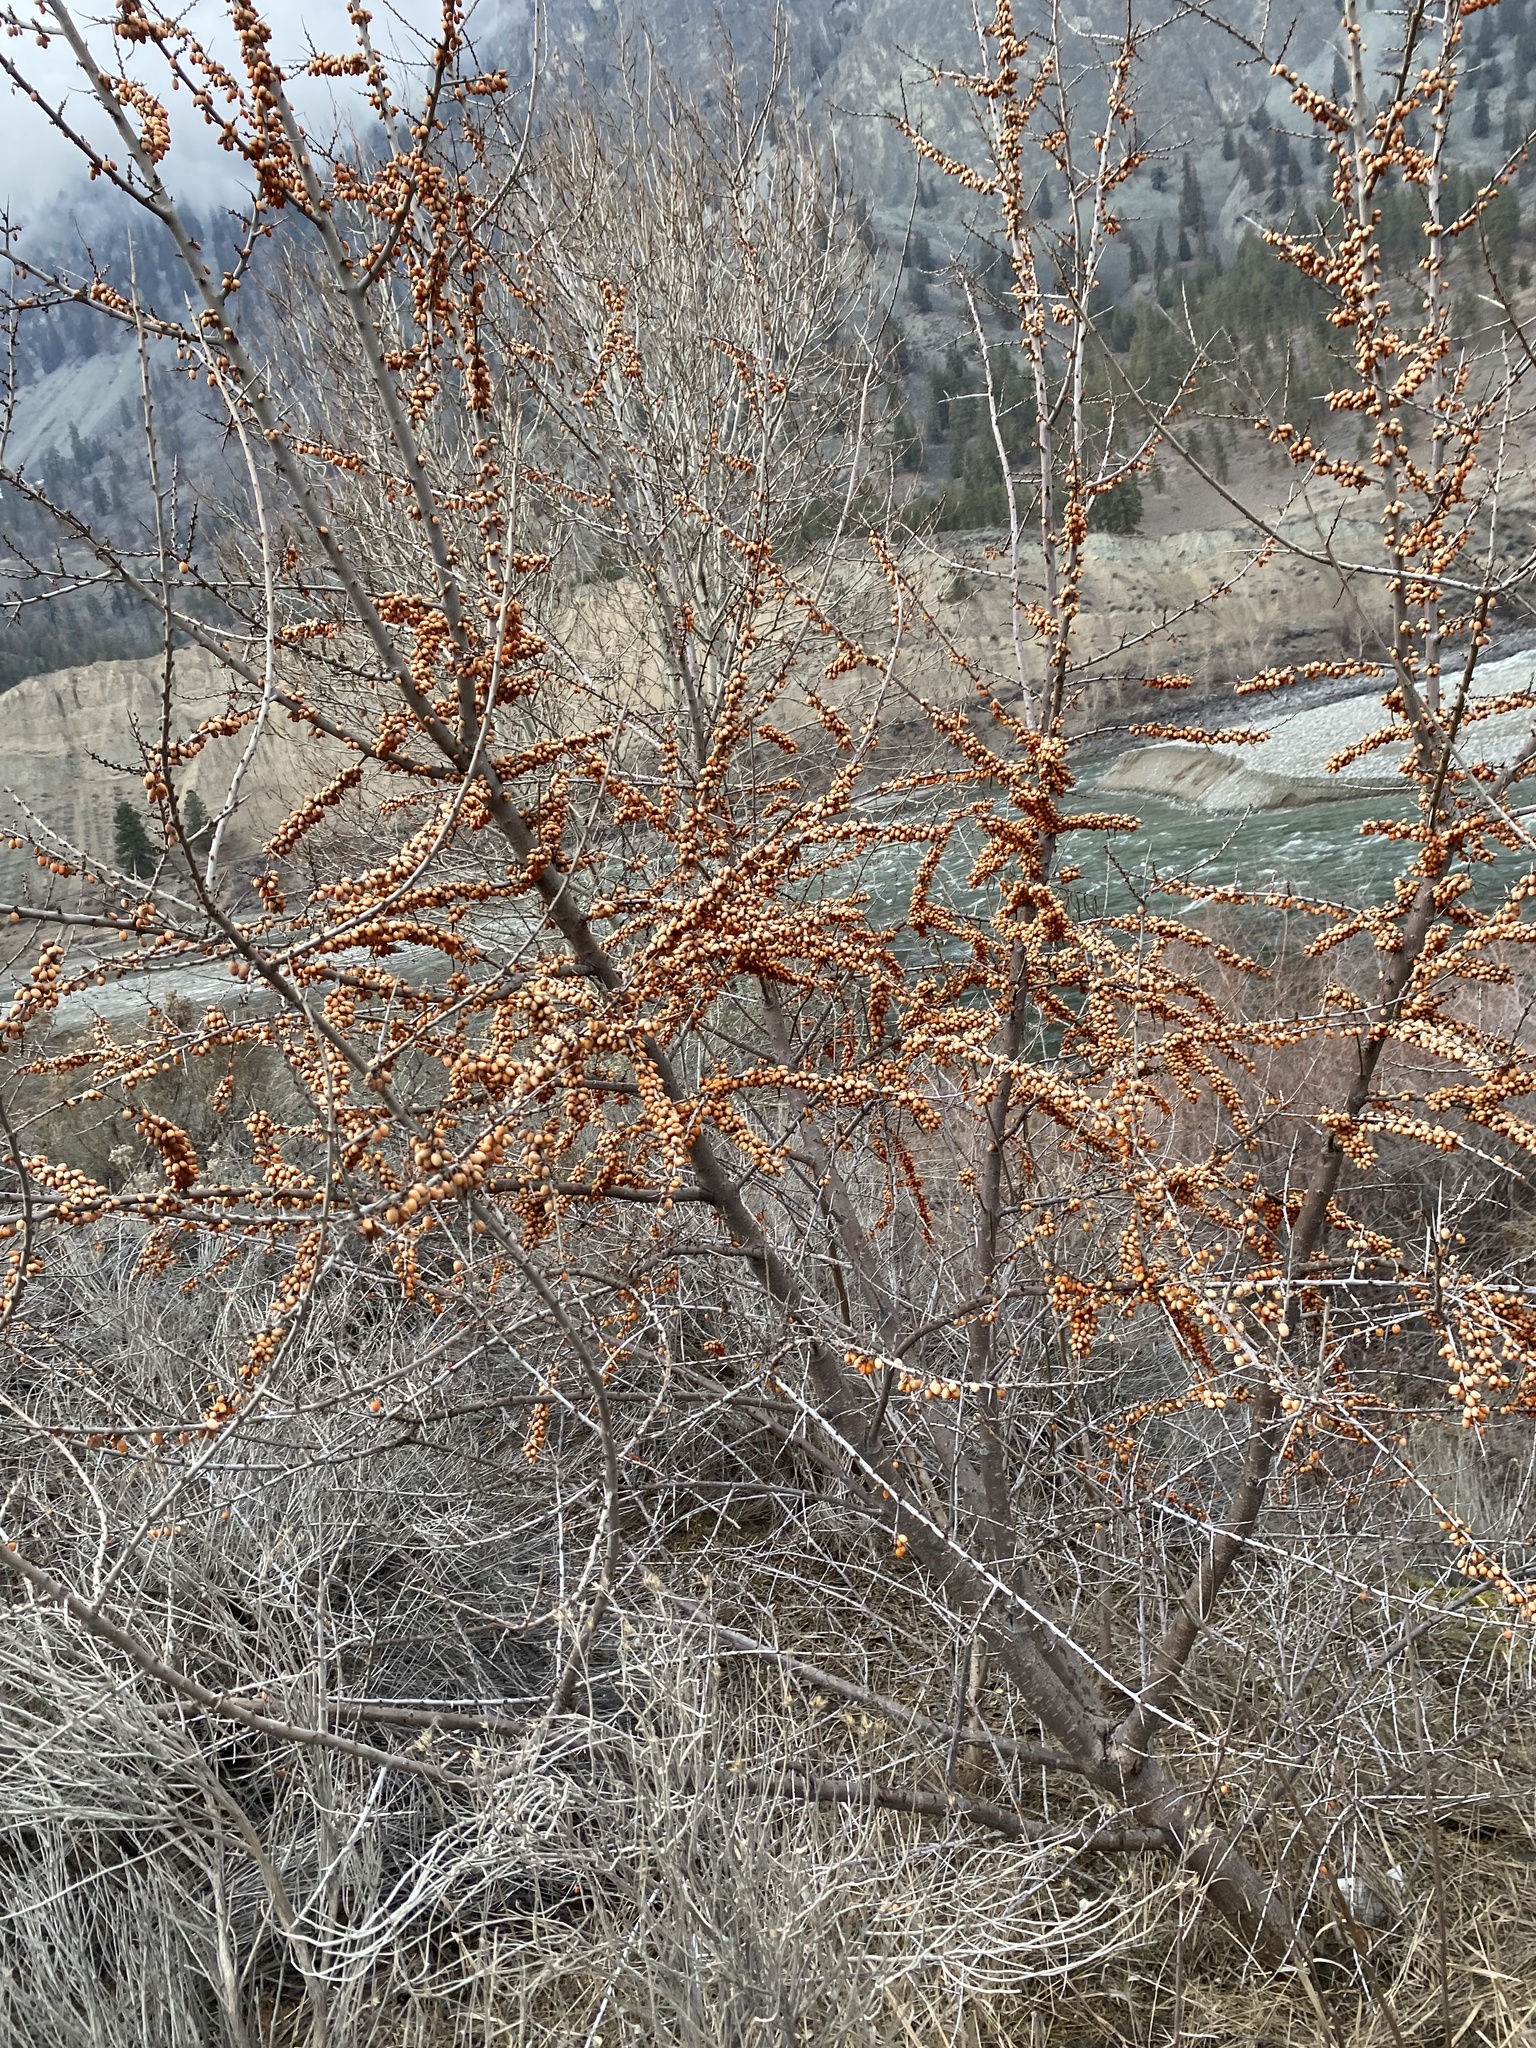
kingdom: Plantae
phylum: Tracheophyta
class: Magnoliopsida
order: Rosales
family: Elaeagnaceae
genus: Hippophae
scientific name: Hippophae rhamnoides
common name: Sea-buckthorn
